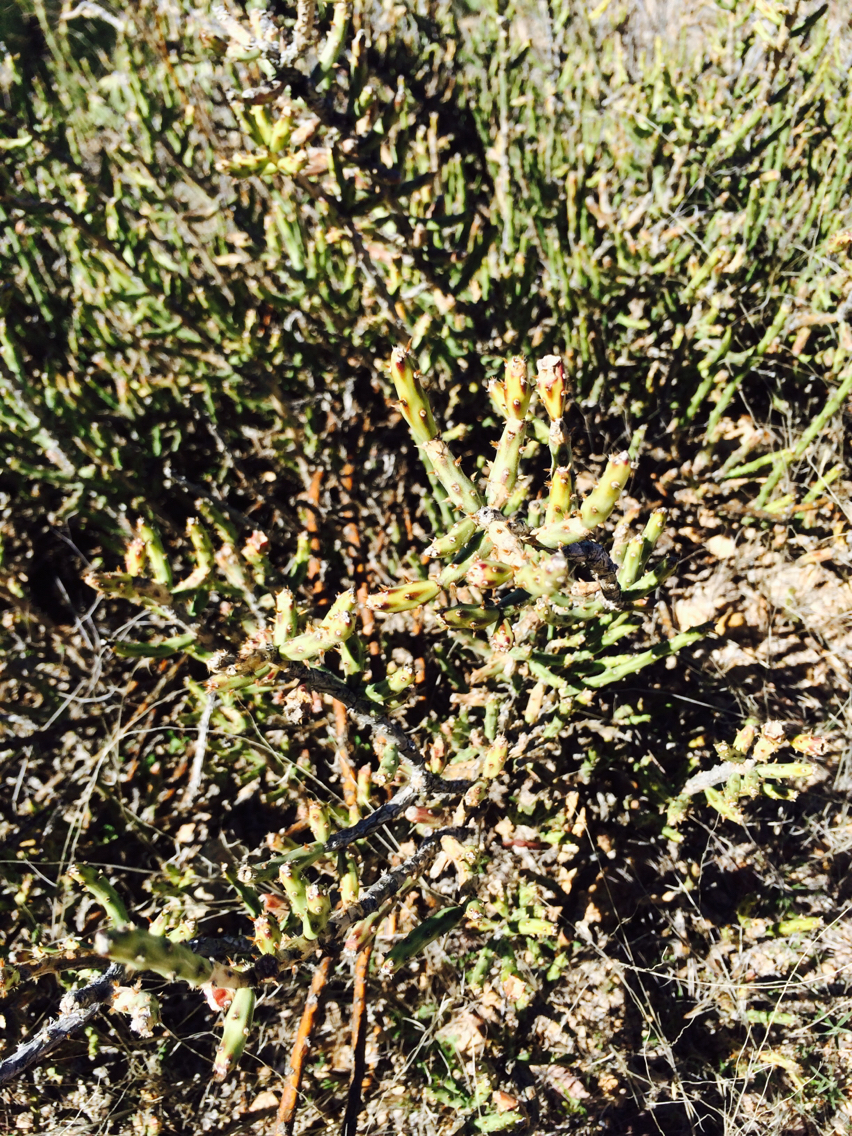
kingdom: Plantae
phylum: Tracheophyta
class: Magnoliopsida
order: Caryophyllales
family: Cactaceae
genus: Cylindropuntia
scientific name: Cylindropuntia leptocaulis
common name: Christmas cactus
